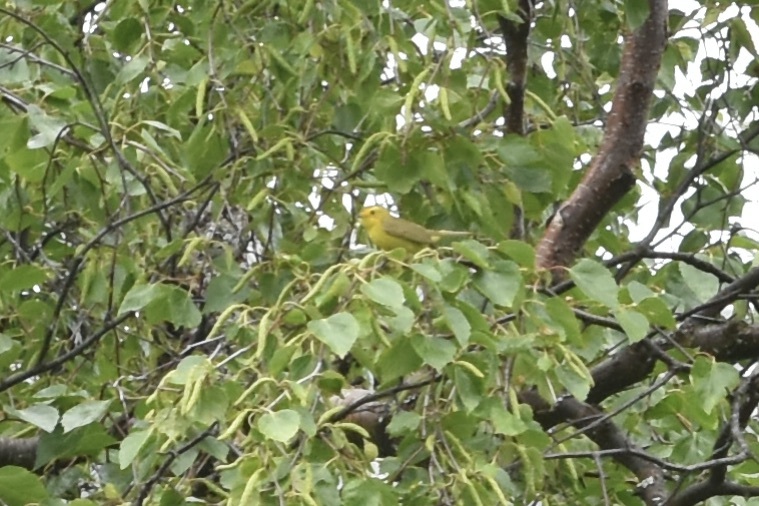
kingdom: Animalia
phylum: Chordata
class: Aves
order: Passeriformes
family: Parulidae
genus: Cardellina
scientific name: Cardellina pusilla
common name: Wilson's warbler
